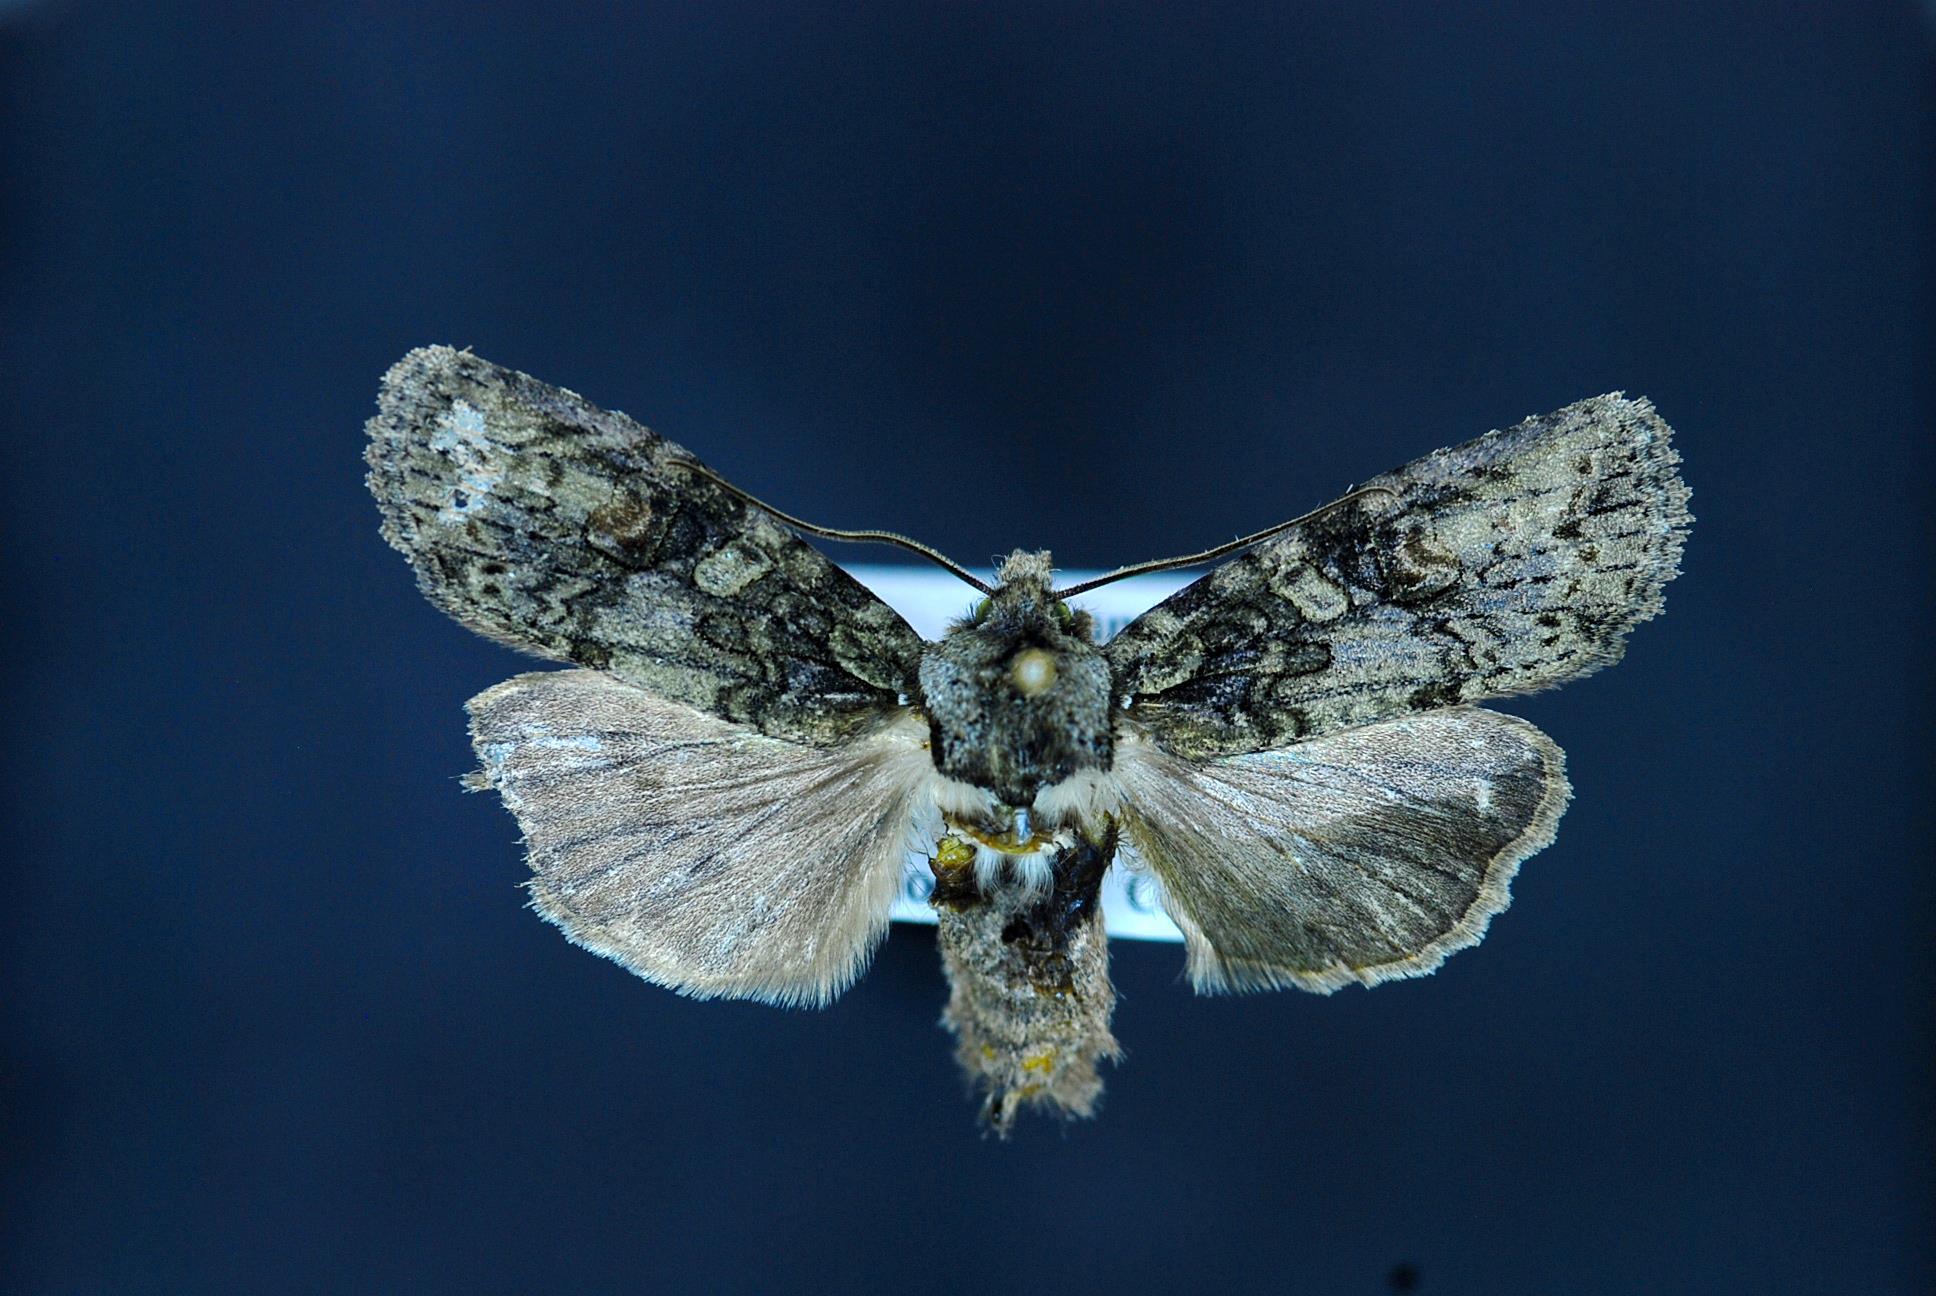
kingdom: Animalia
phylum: Arthropoda
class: Insecta
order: Lepidoptera
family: Noctuidae
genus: Lithophane
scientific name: Lithophane scottae
